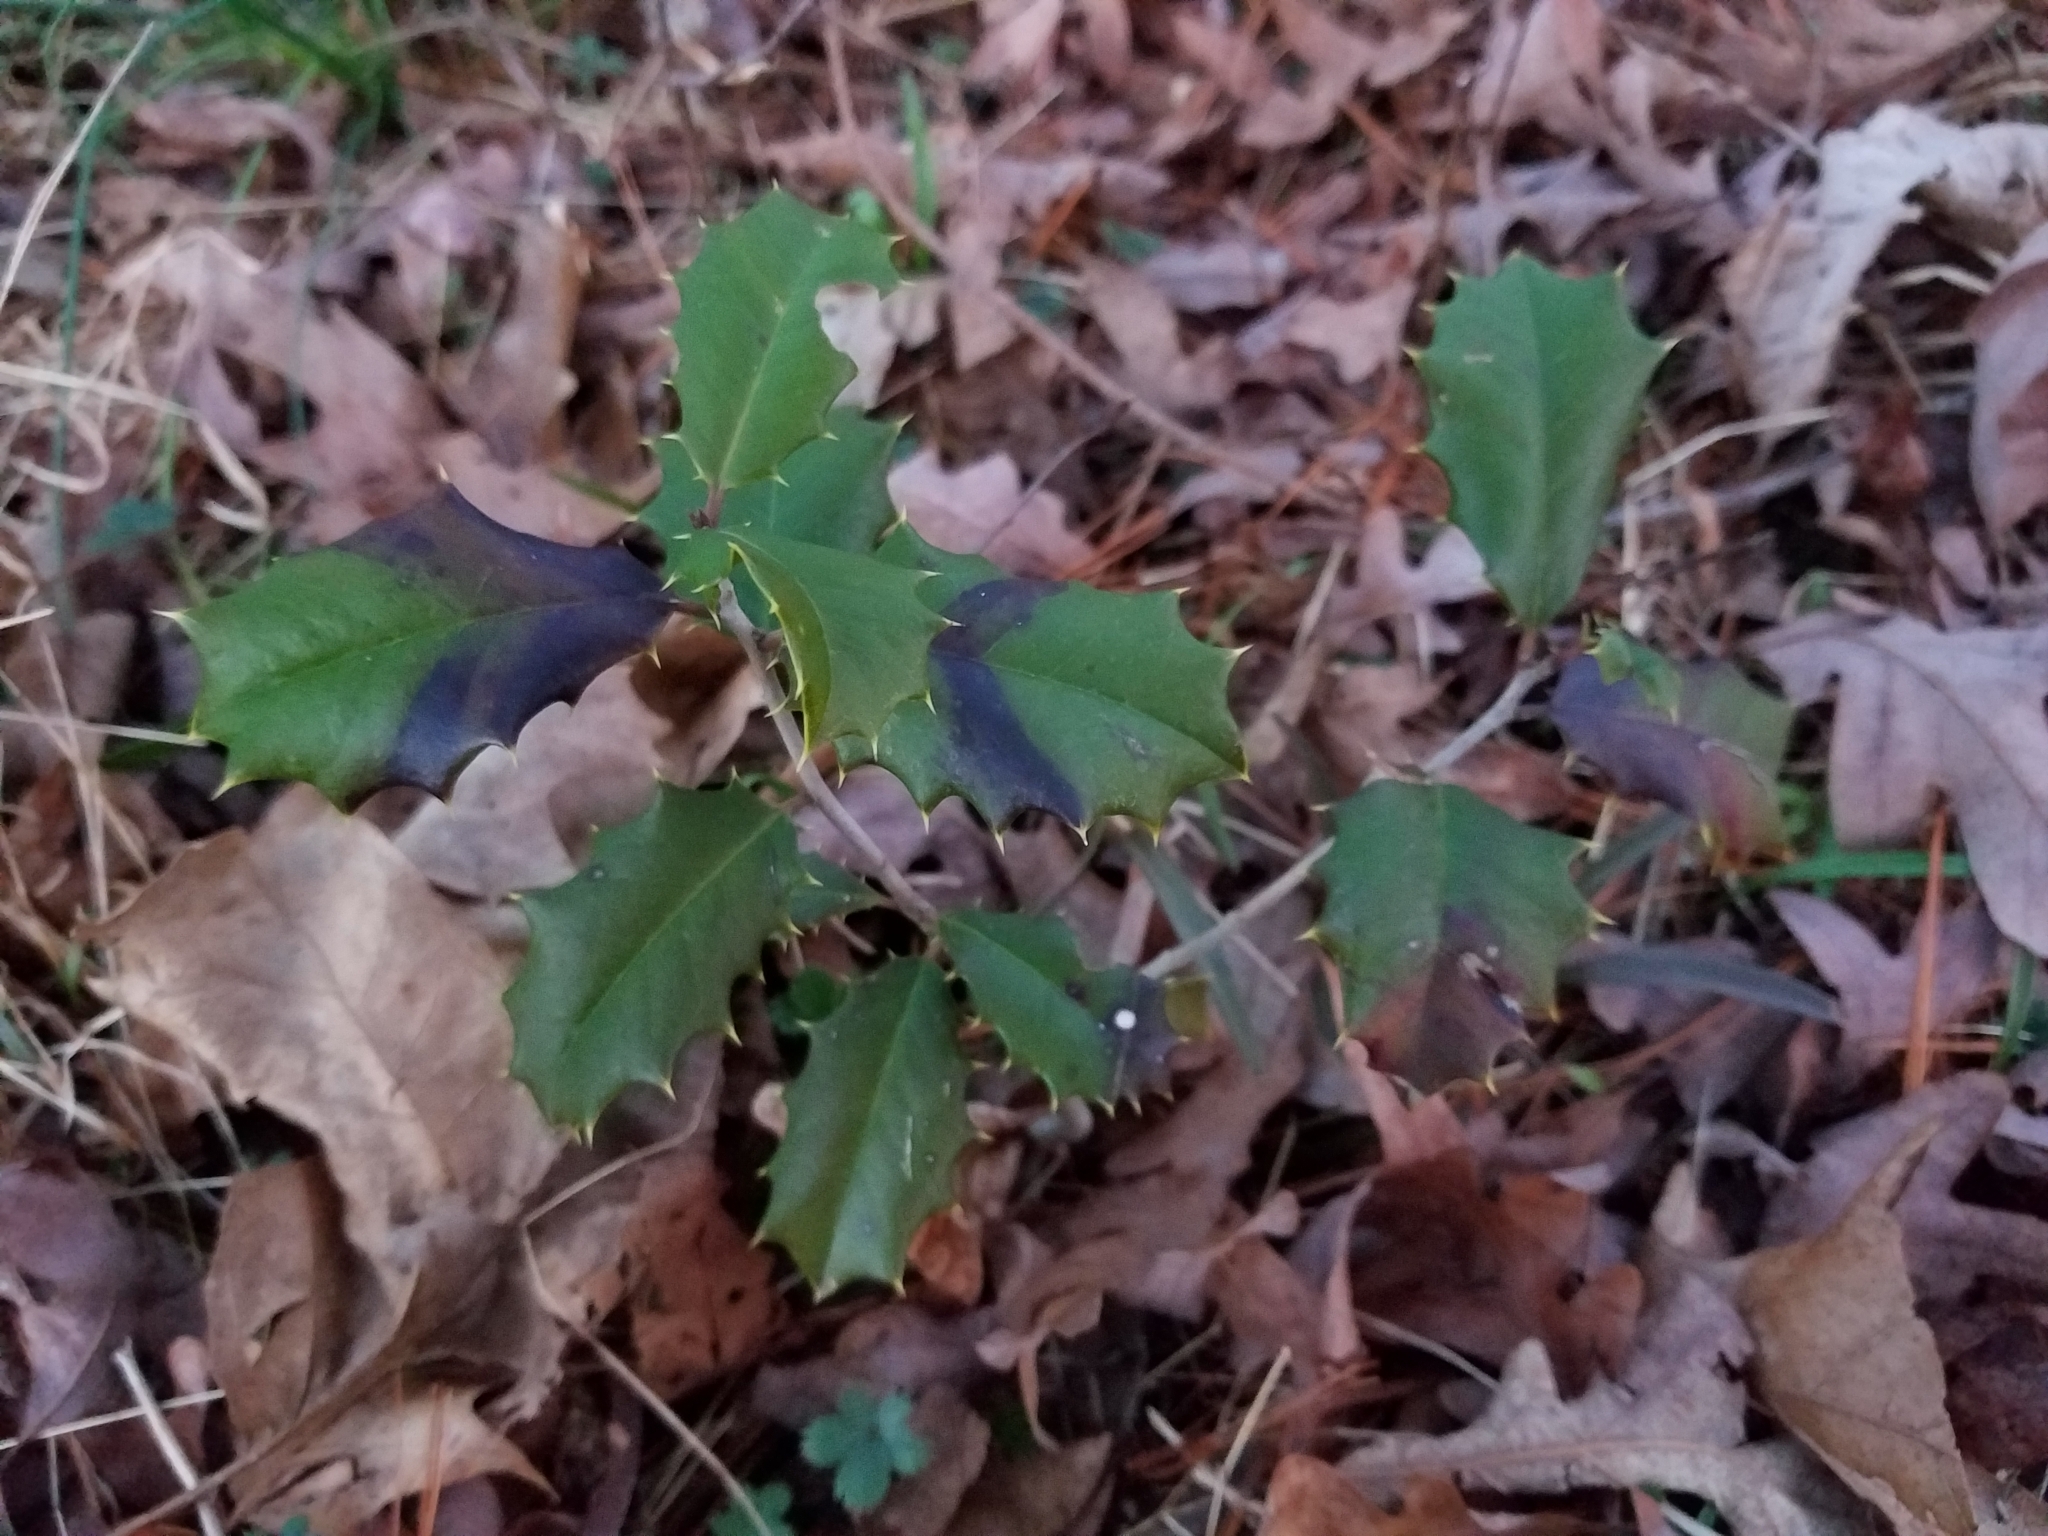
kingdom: Plantae
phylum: Tracheophyta
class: Magnoliopsida
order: Aquifoliales
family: Aquifoliaceae
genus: Ilex
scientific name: Ilex opaca
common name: American holly
